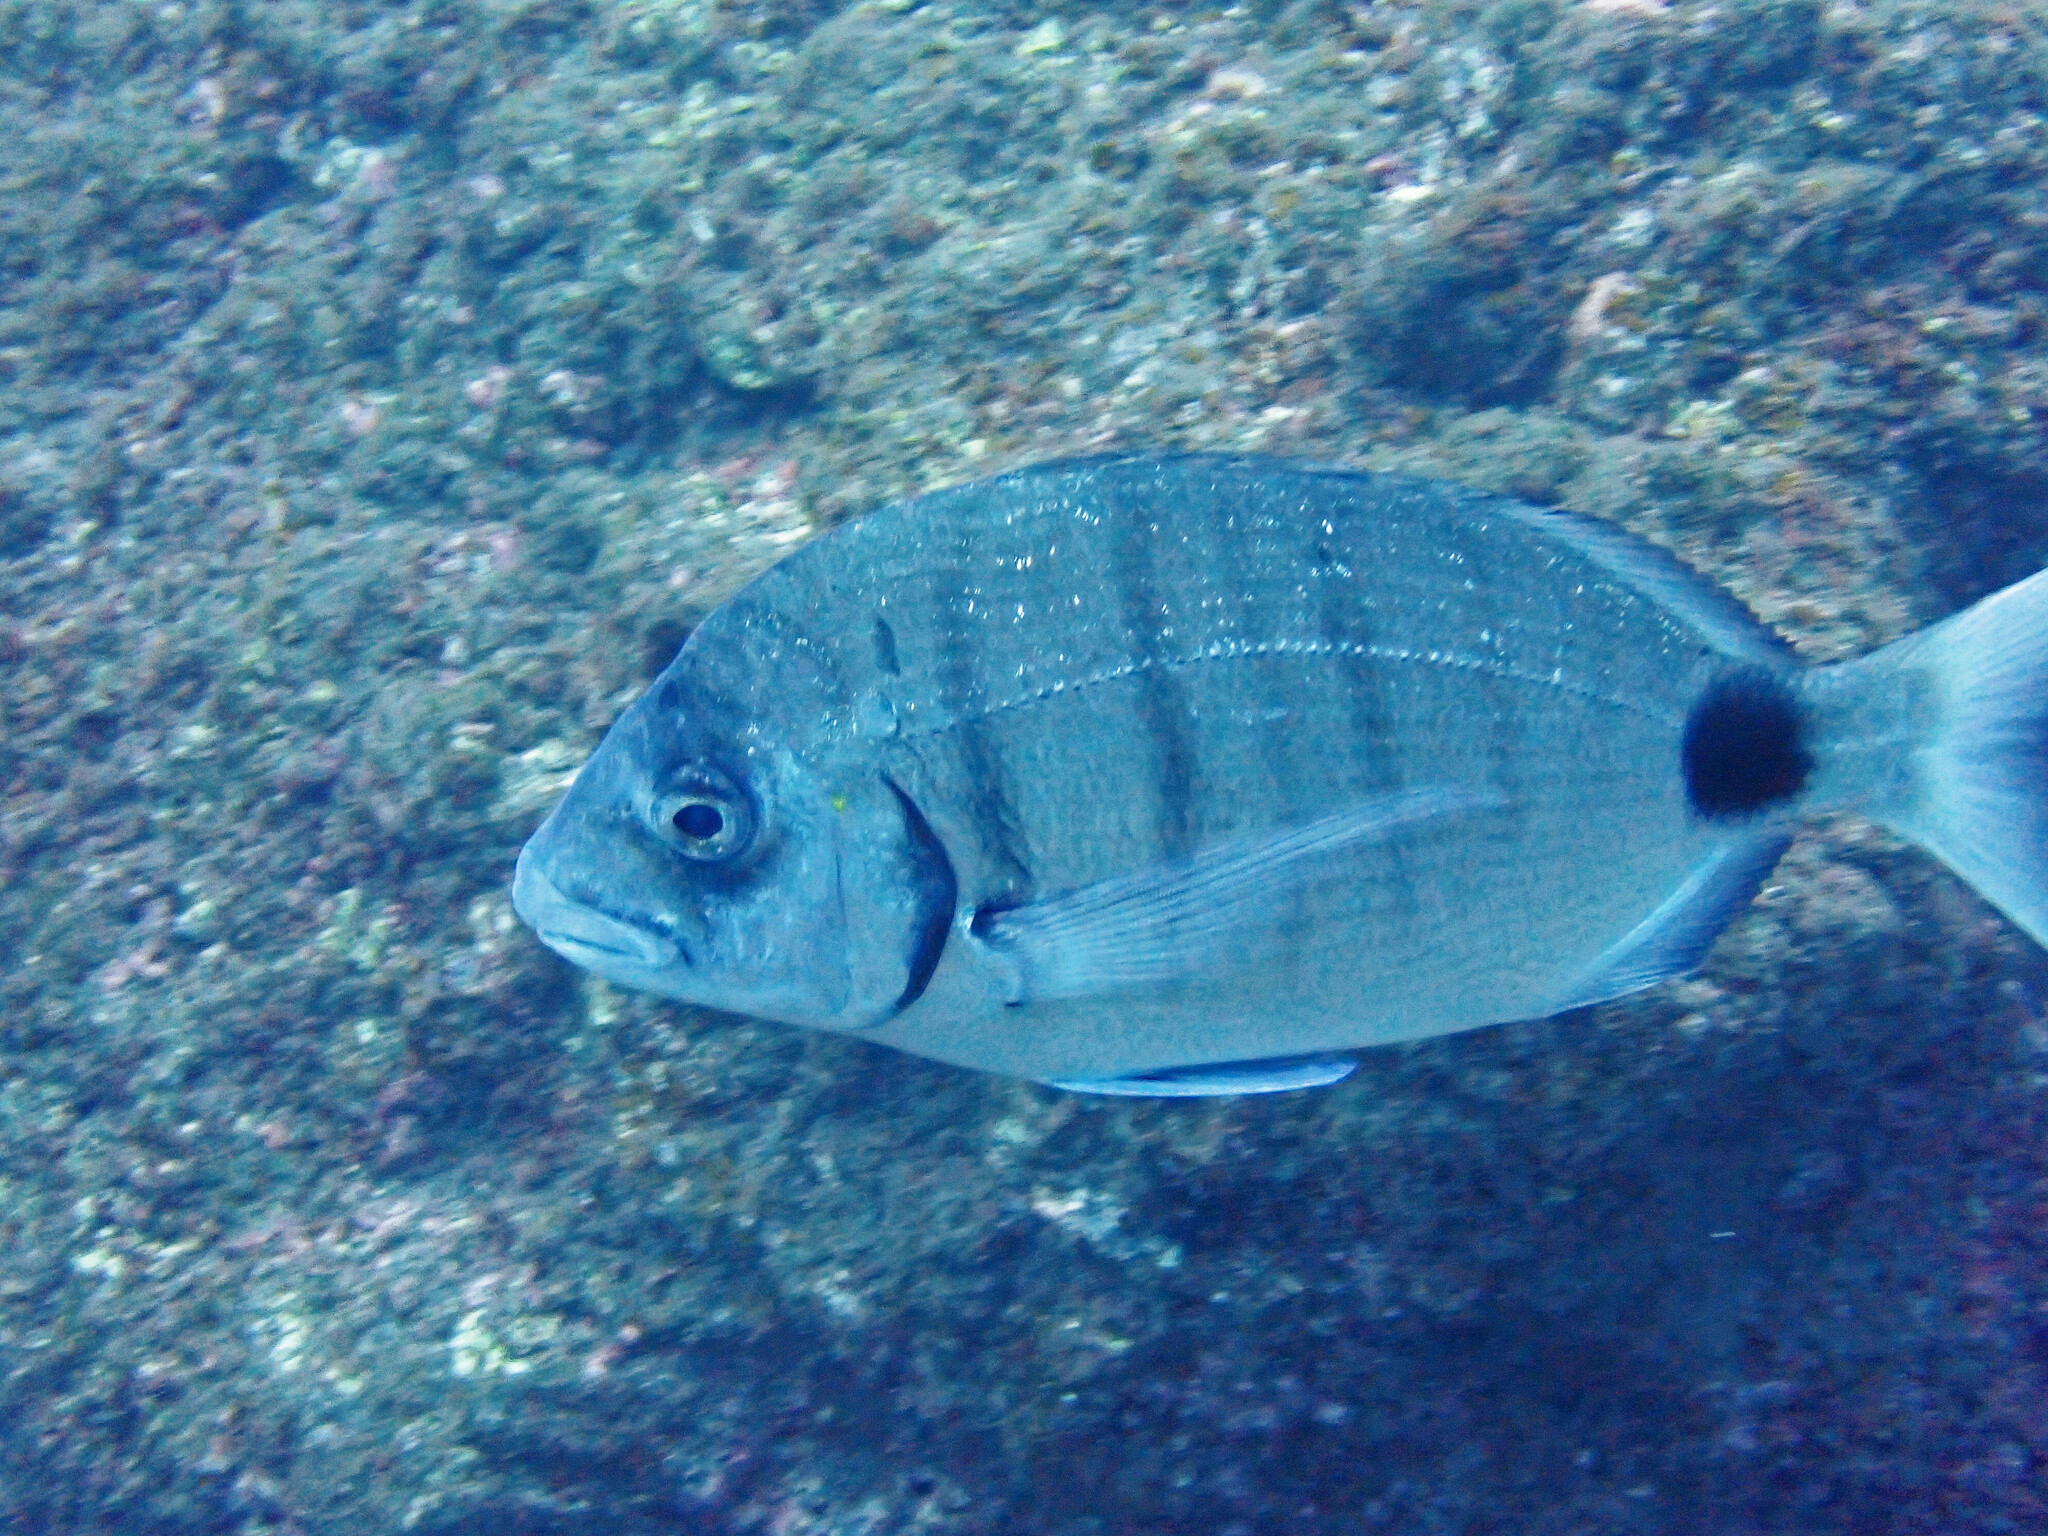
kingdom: Animalia
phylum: Chordata
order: Perciformes
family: Sparidae
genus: Diplodus
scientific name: Diplodus cadenati
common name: Moroccan white seabream
